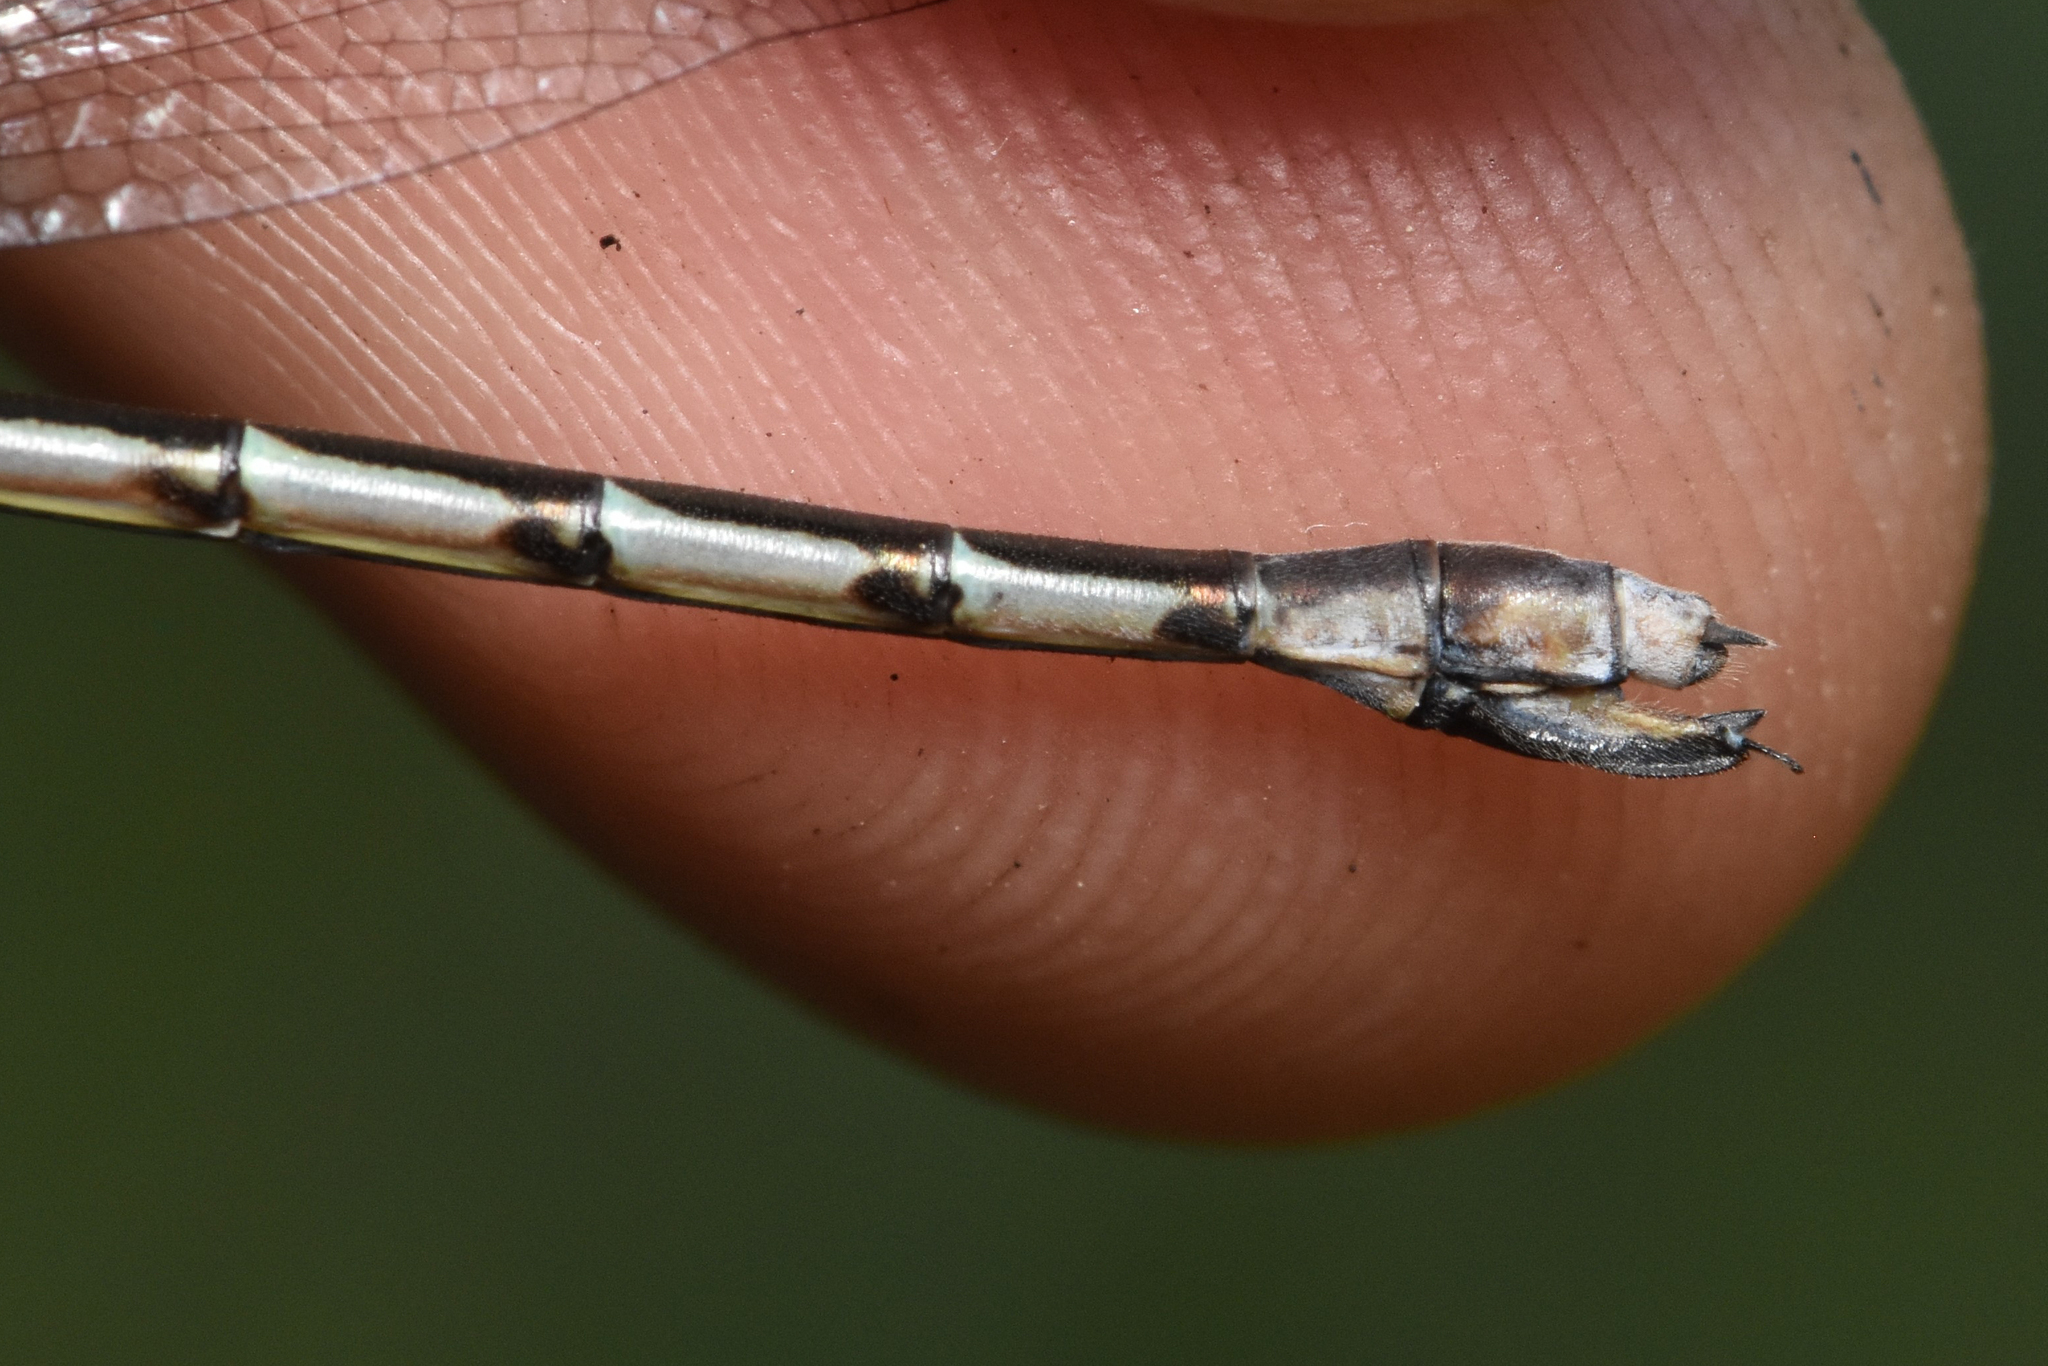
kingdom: Animalia
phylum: Arthropoda
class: Insecta
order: Odonata
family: Lestidae
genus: Lestes
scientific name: Lestes forcipatus
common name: Sweetflag spreadwing
